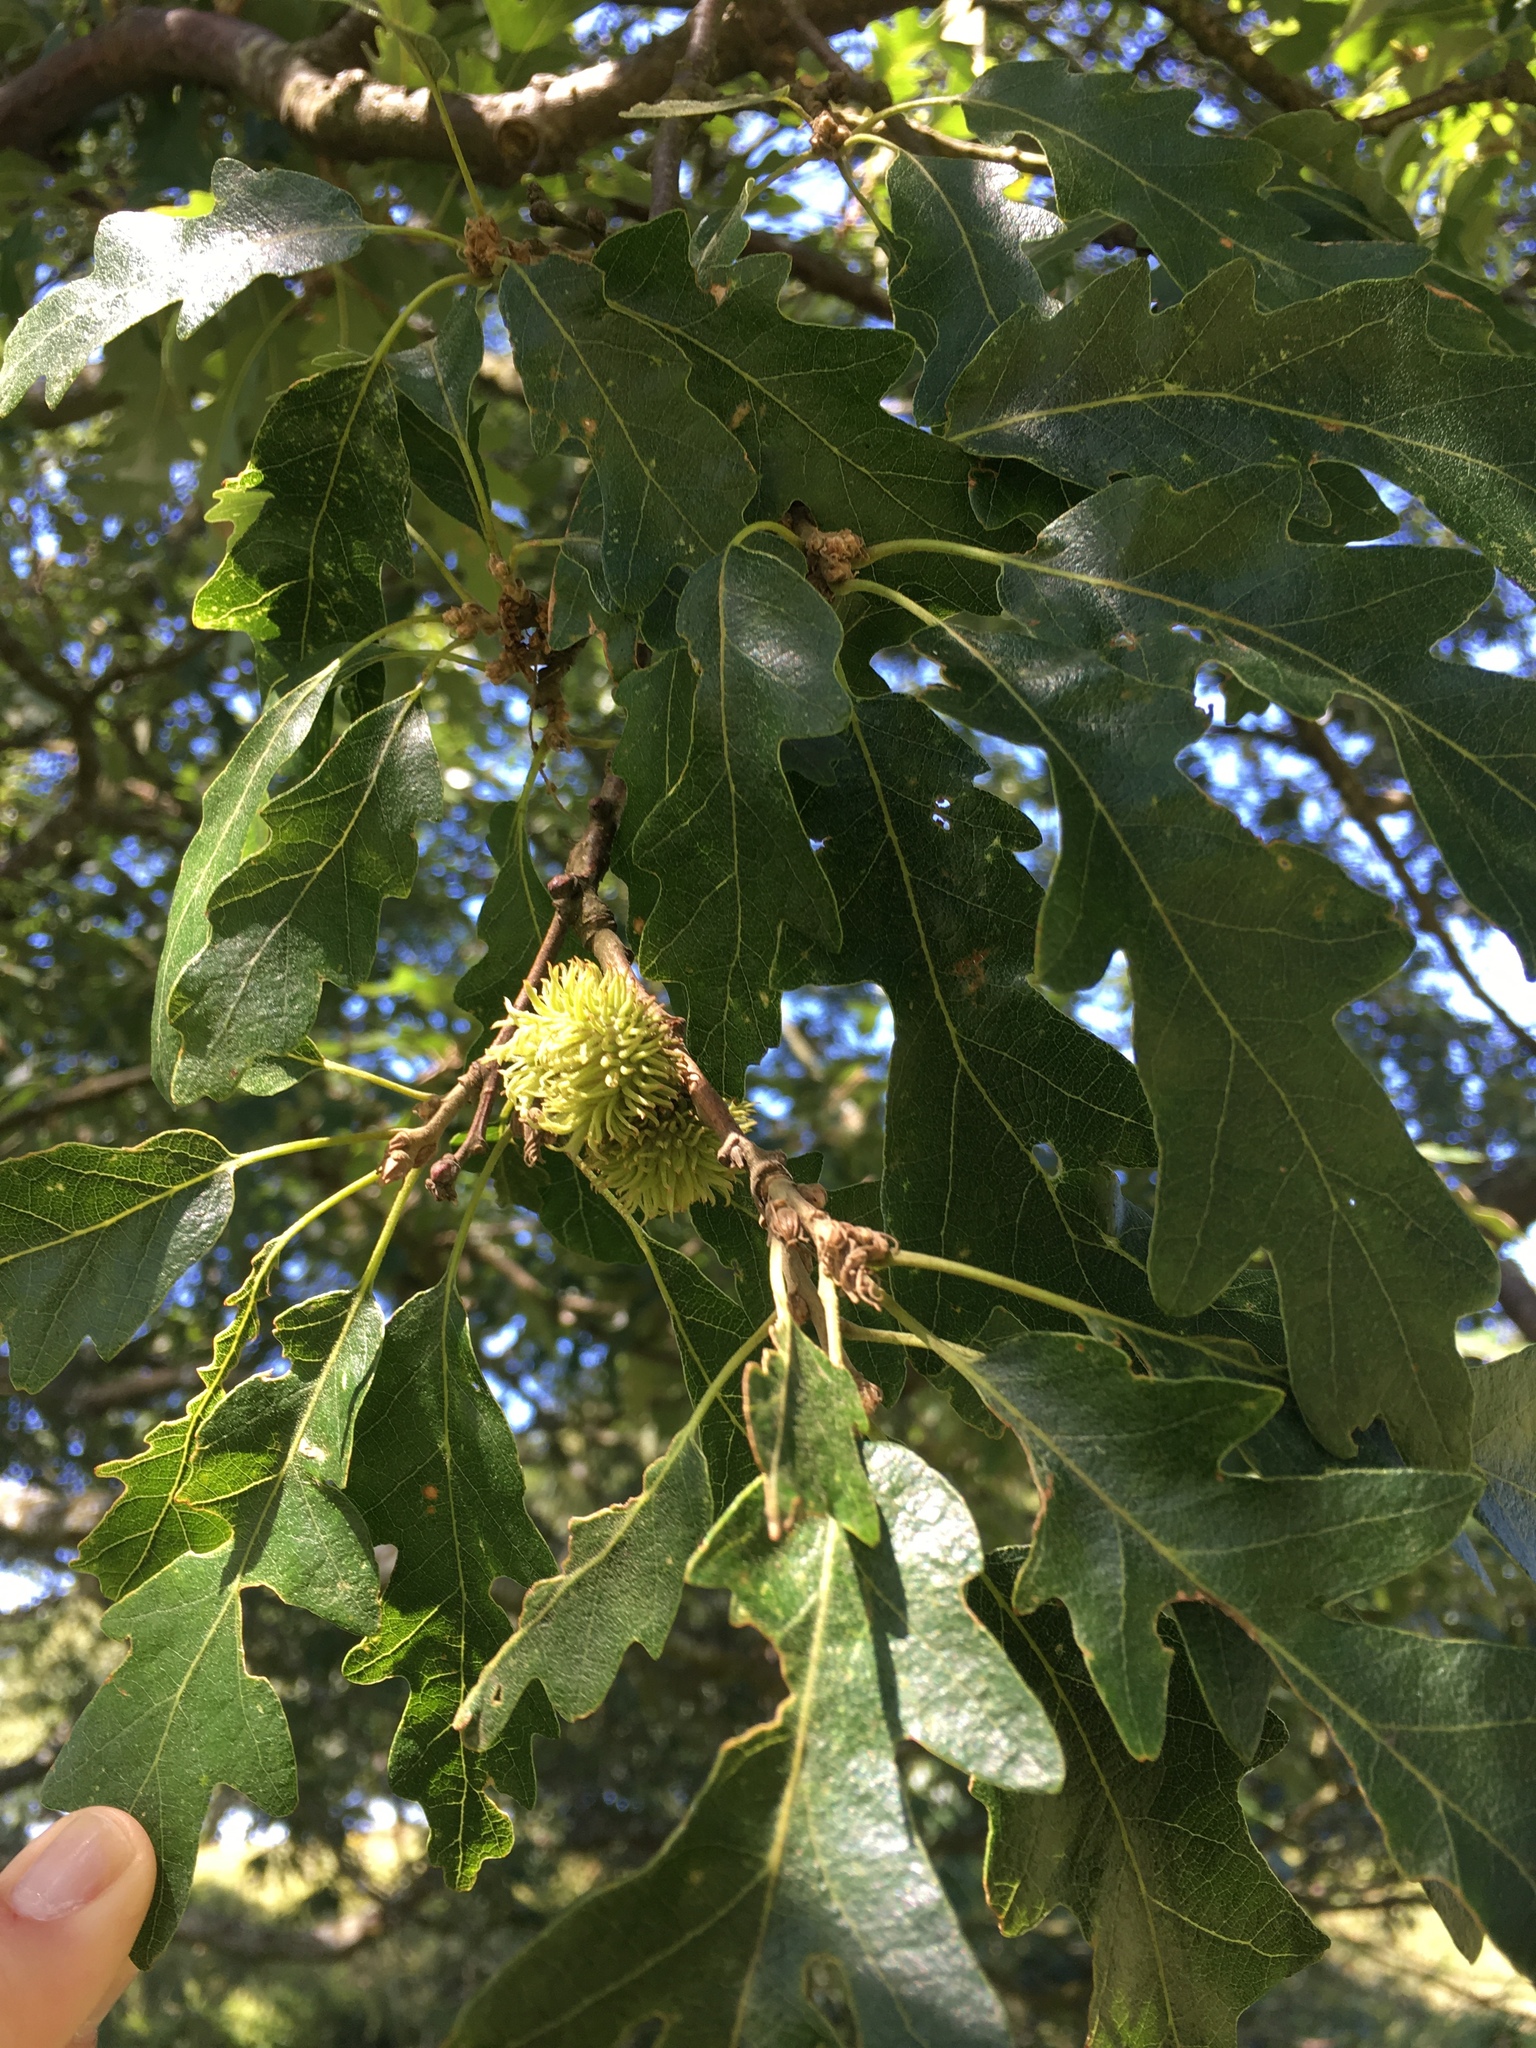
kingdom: Plantae
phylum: Tracheophyta
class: Magnoliopsida
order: Fagales
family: Fagaceae
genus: Quercus
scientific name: Quercus cerris
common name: Turkey oak
